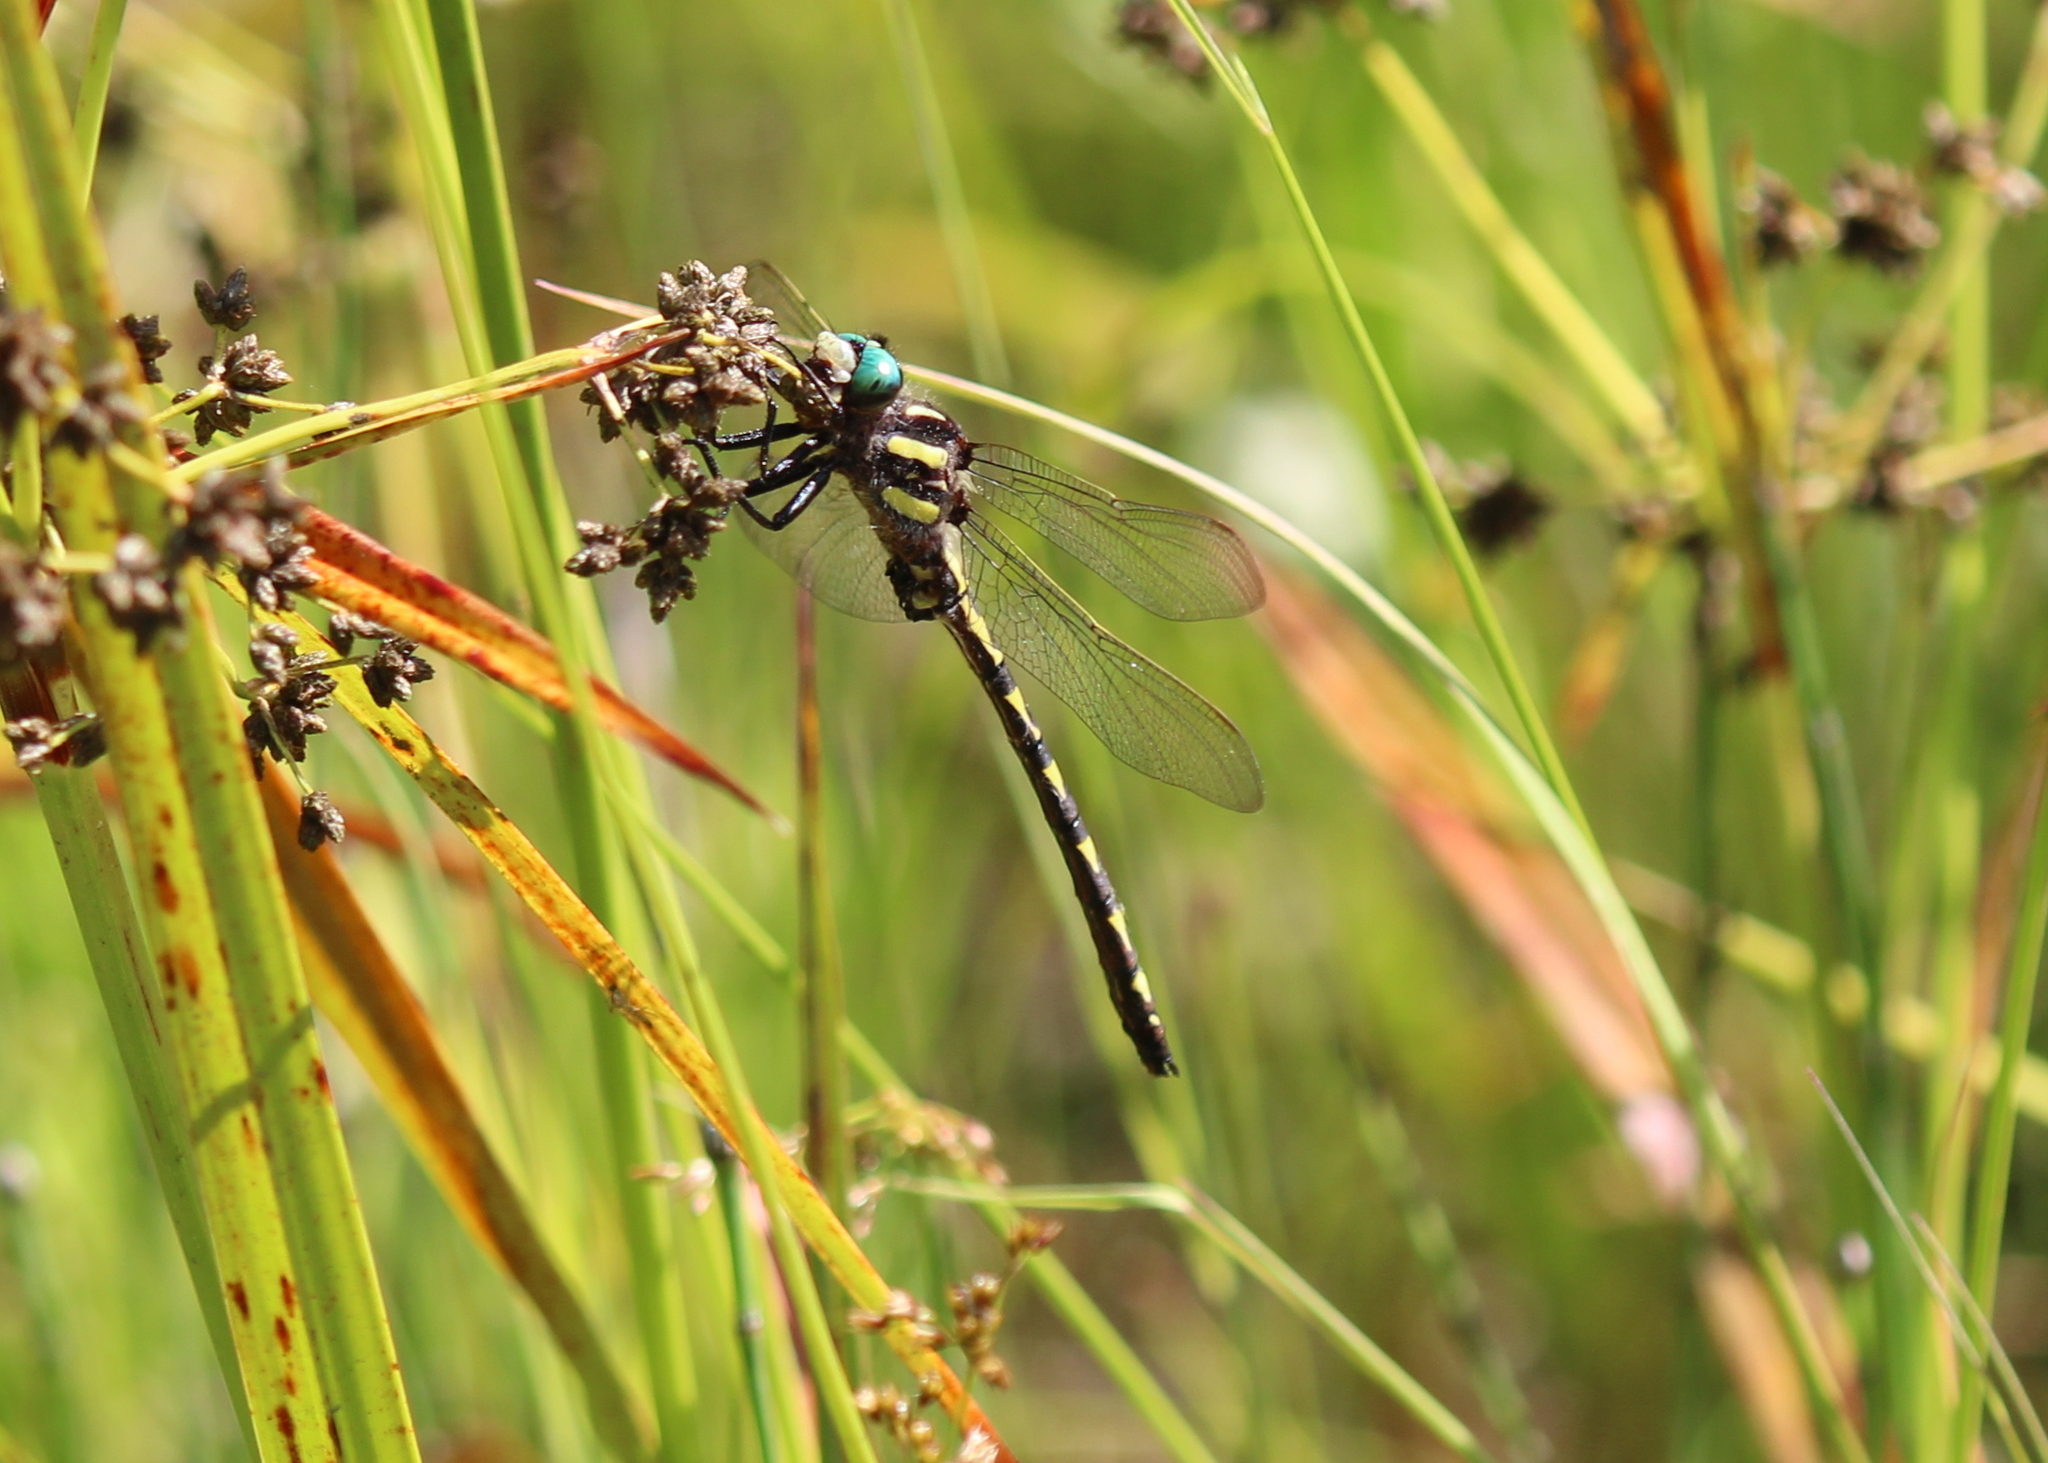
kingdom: Animalia
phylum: Arthropoda
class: Insecta
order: Odonata
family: Cordulegastridae
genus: Cordulegaster
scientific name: Cordulegaster diastatops
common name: Delta-spotted spiketail
